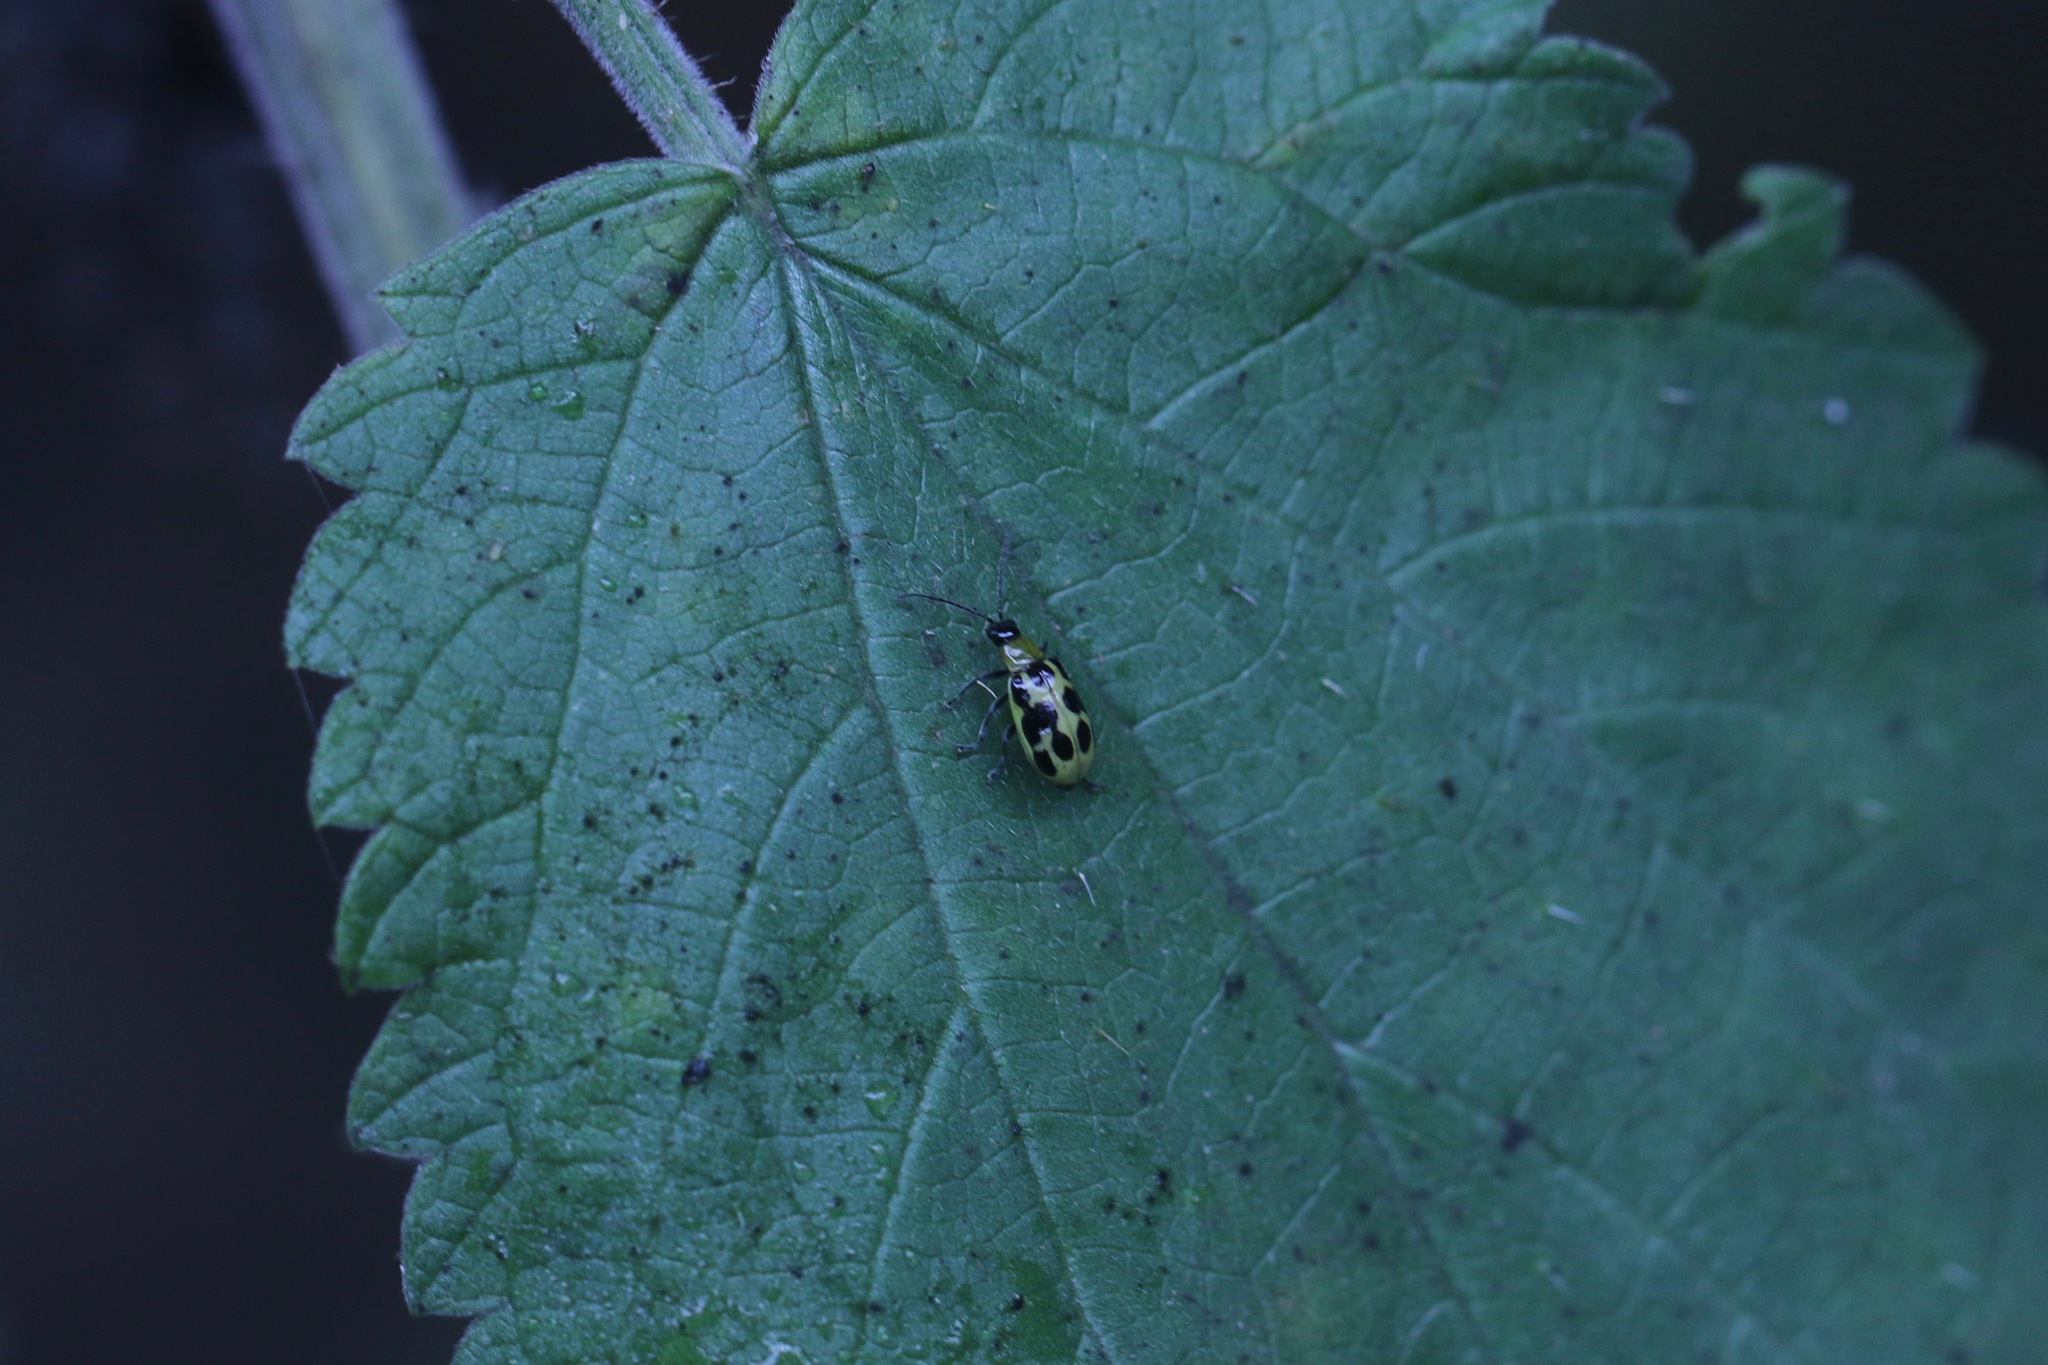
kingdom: Animalia
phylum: Arthropoda
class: Insecta
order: Coleoptera
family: Chrysomelidae
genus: Diabrotica
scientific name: Diabrotica undecimpunctata
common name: Spotted cucumber beetle
